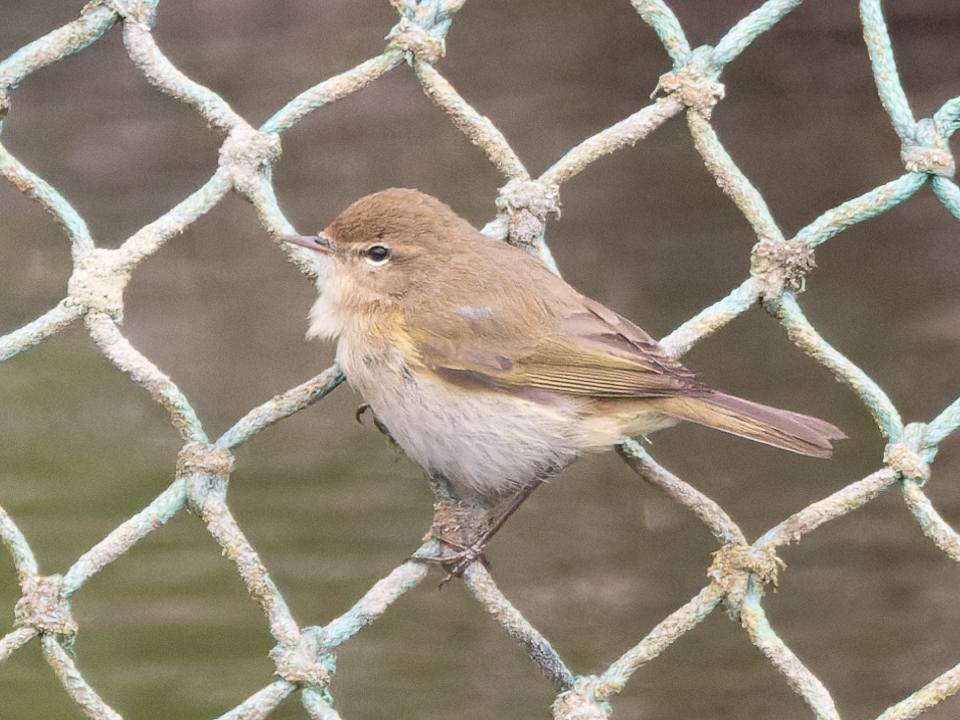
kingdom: Animalia
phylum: Chordata
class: Aves
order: Passeriformes
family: Phylloscopidae
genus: Phylloscopus
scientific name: Phylloscopus collybita
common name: Common chiffchaff
